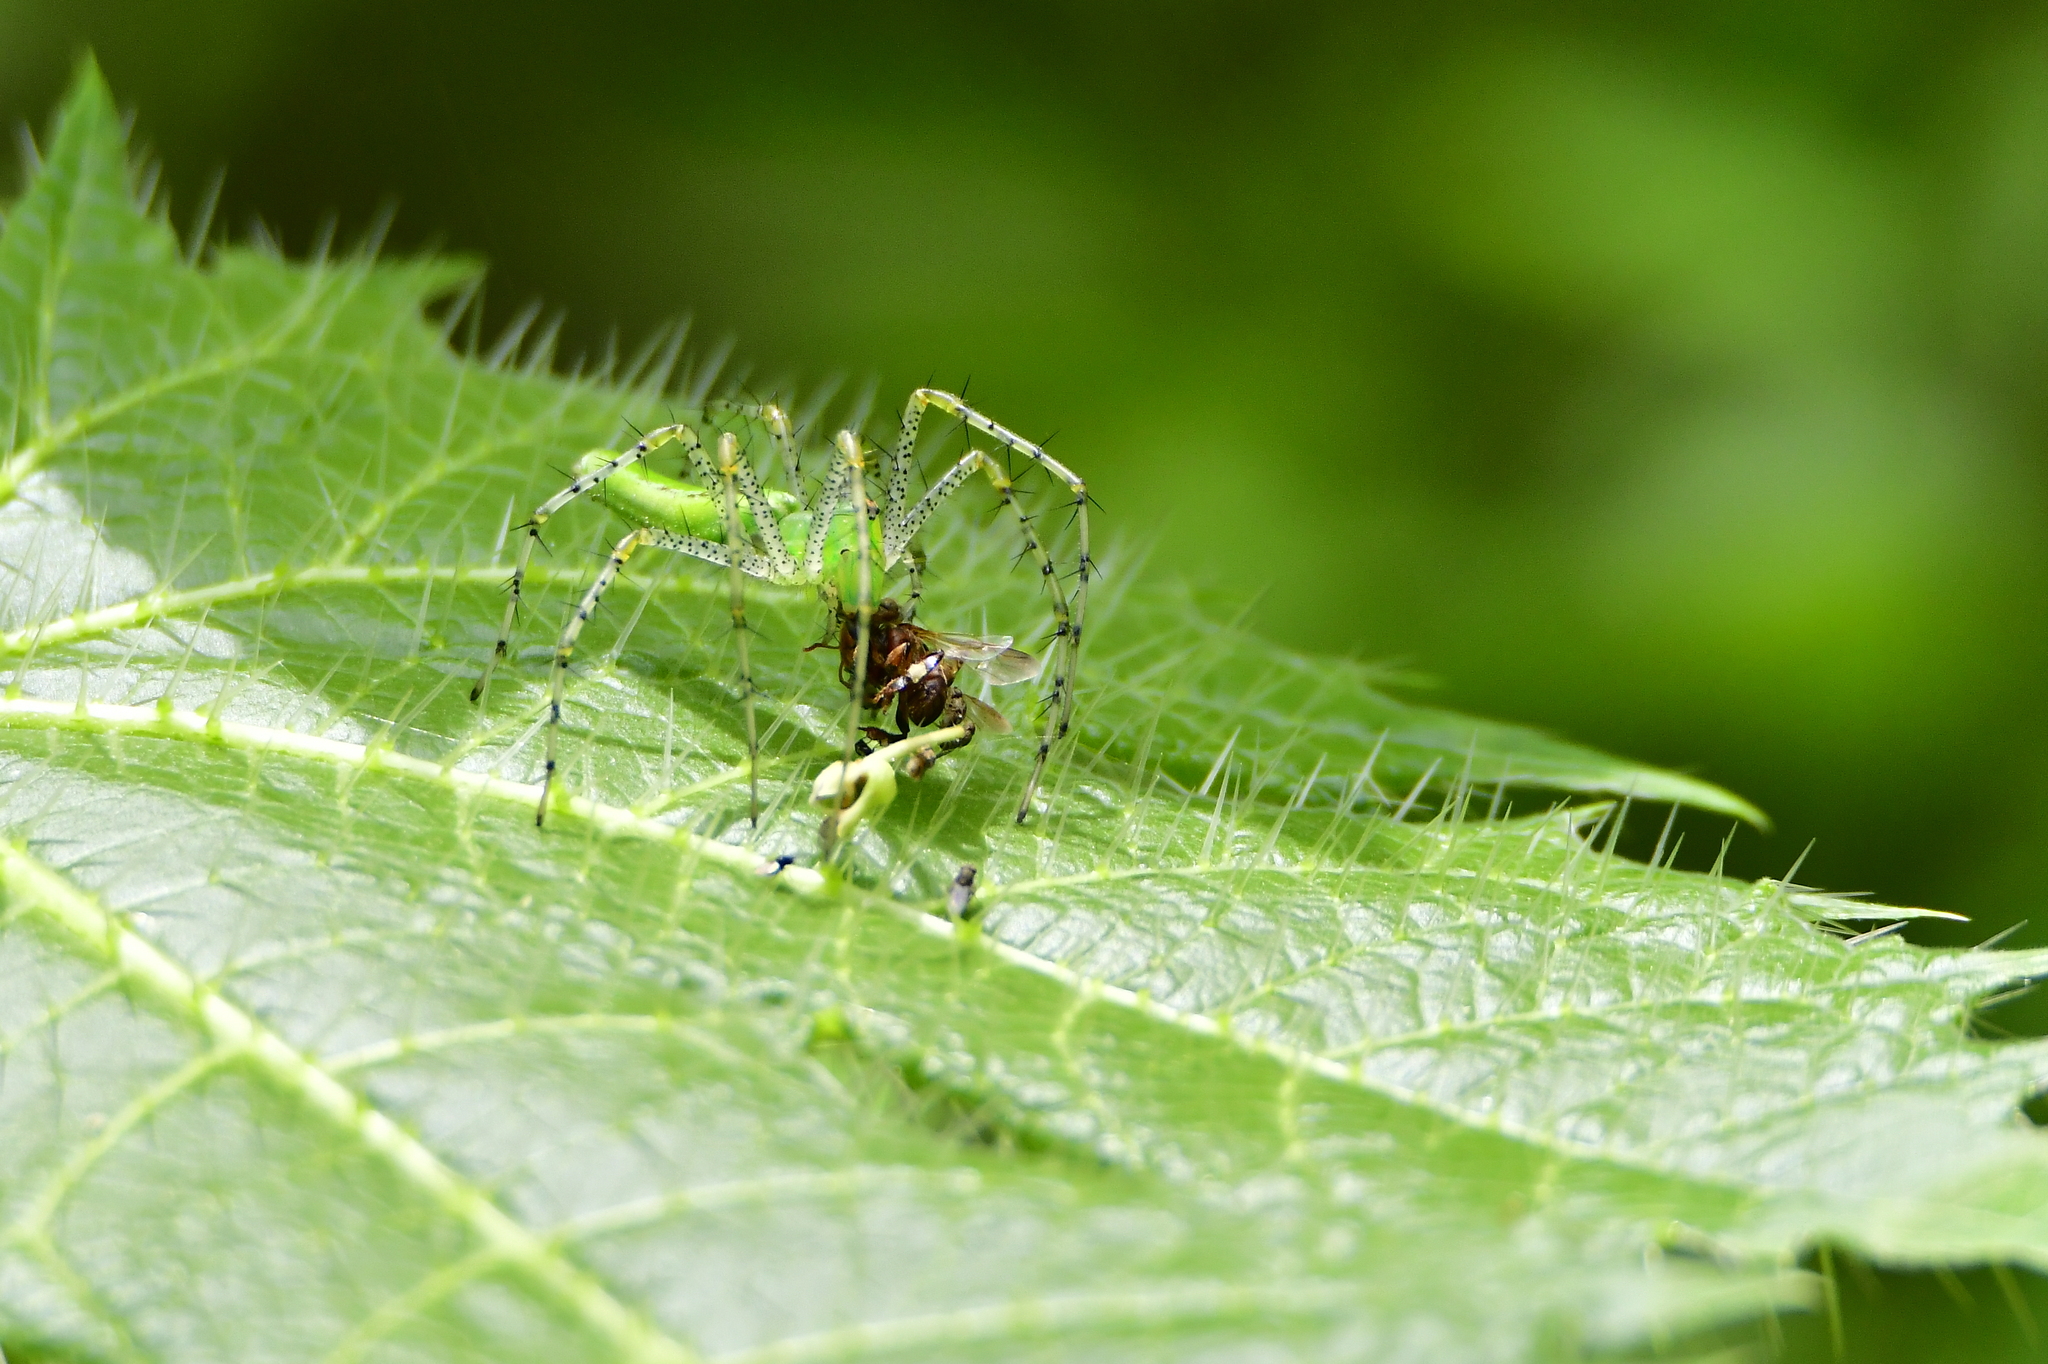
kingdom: Animalia
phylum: Arthropoda
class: Arachnida
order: Araneae
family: Oxyopidae
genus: Peucetia
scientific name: Peucetia viridans
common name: Lynx spiders
